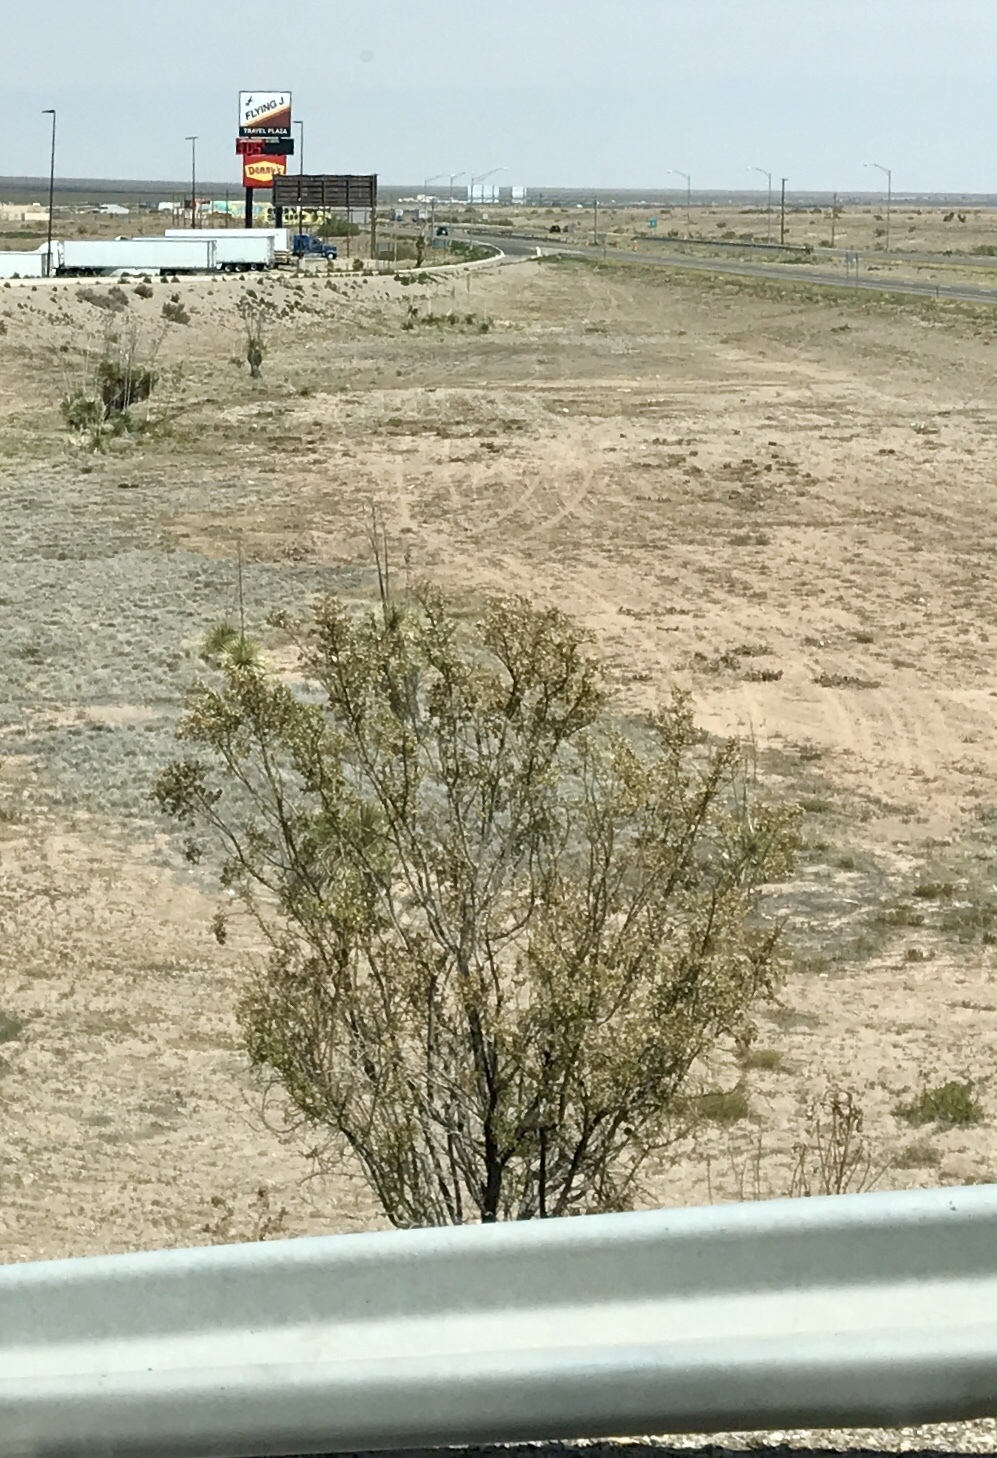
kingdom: Plantae
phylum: Tracheophyta
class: Magnoliopsida
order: Zygophyllales
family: Zygophyllaceae
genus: Larrea
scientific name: Larrea tridentata
